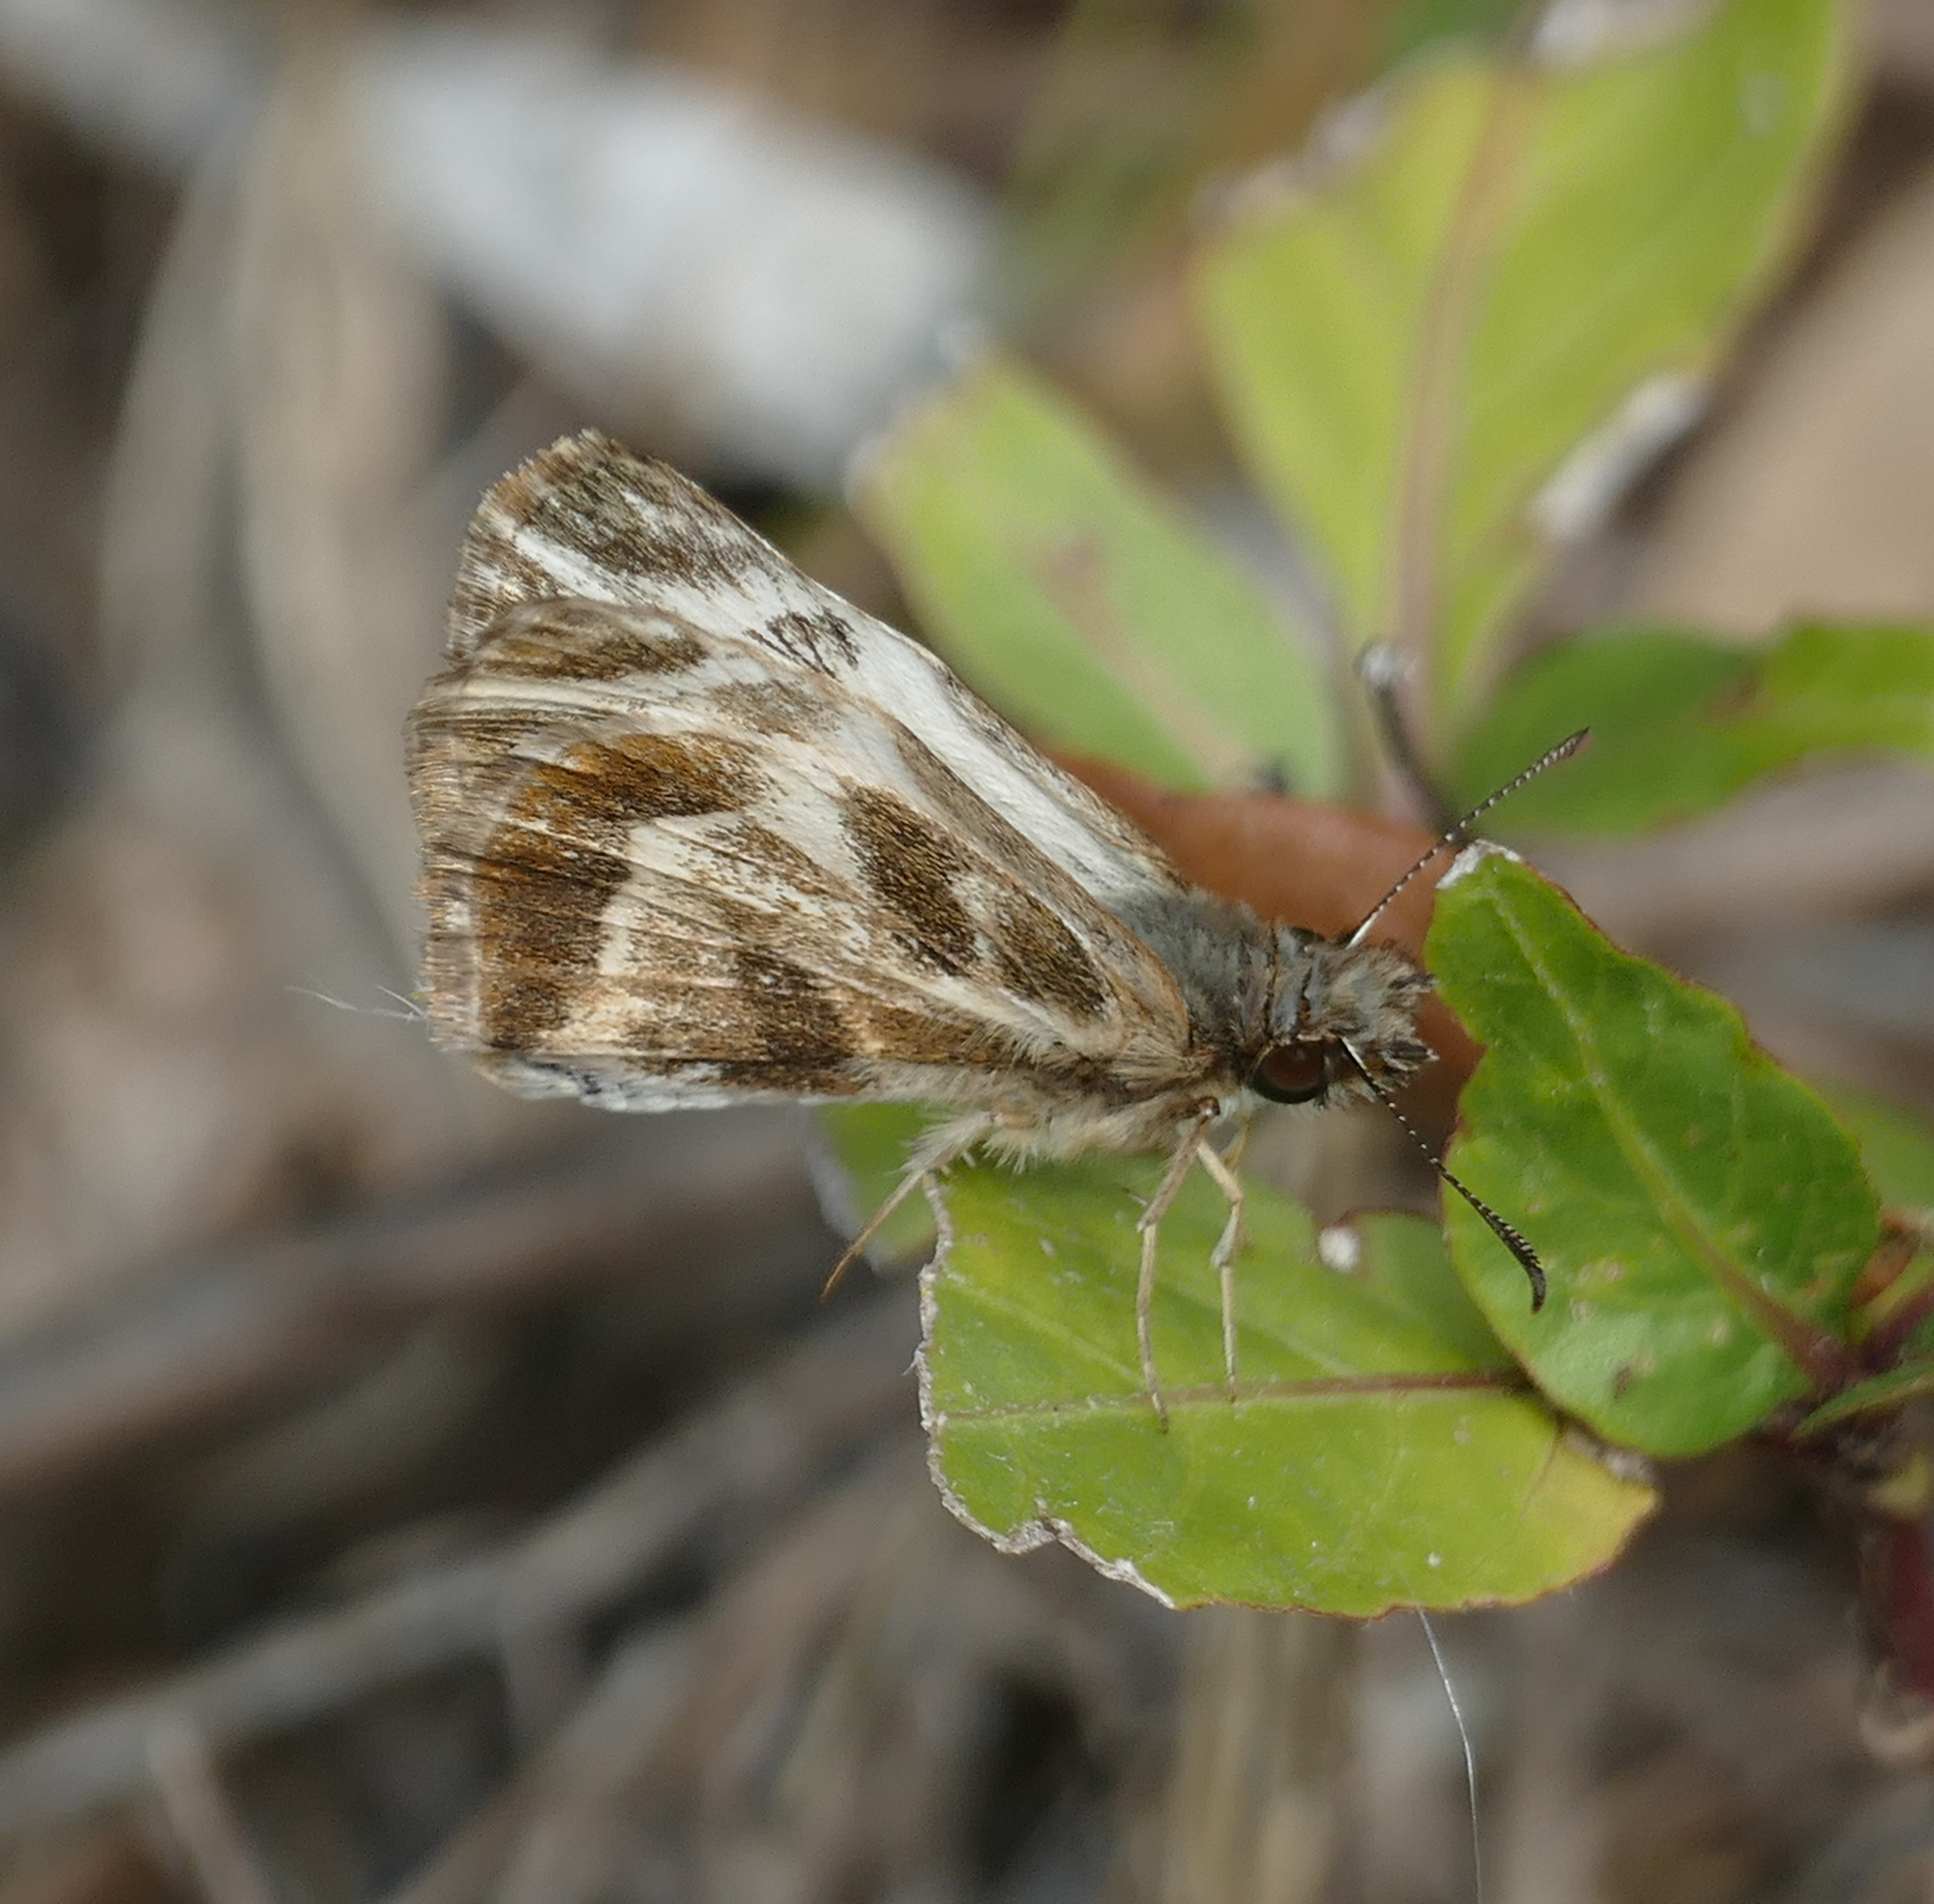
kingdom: Animalia
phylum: Arthropoda
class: Insecta
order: Lepidoptera
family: Hesperiidae
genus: Heliopetes
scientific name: Heliopetes macaira
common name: Turk's-cap white-skipper
